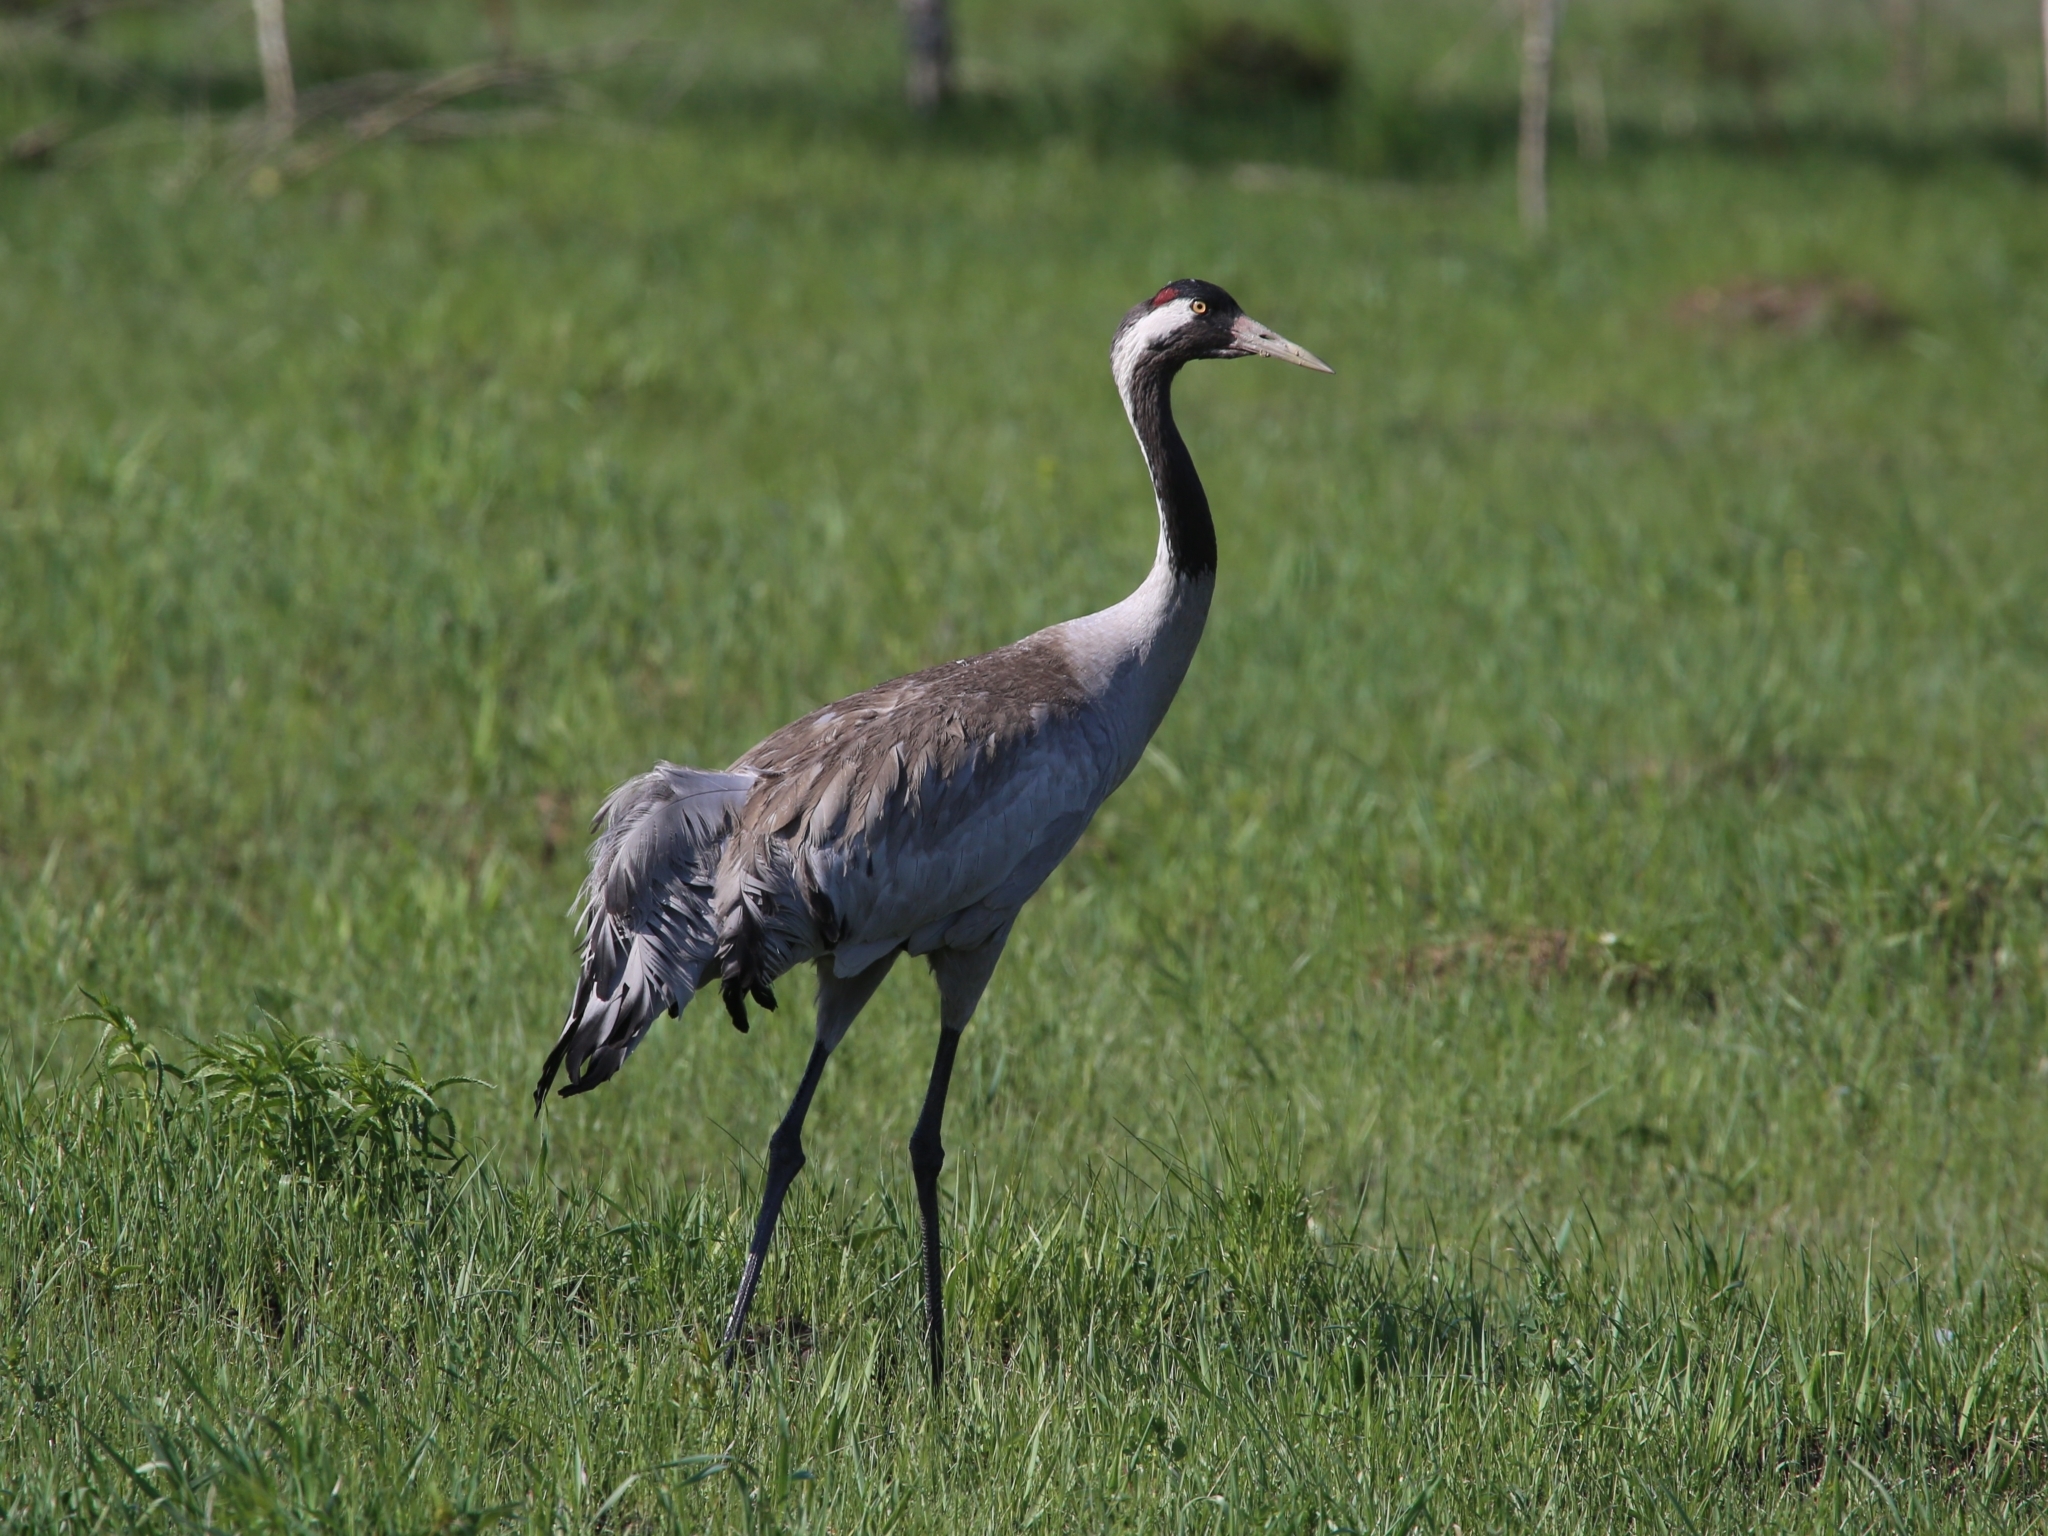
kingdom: Animalia
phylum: Chordata
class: Aves
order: Gruiformes
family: Gruidae
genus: Grus
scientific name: Grus grus
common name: Common crane
